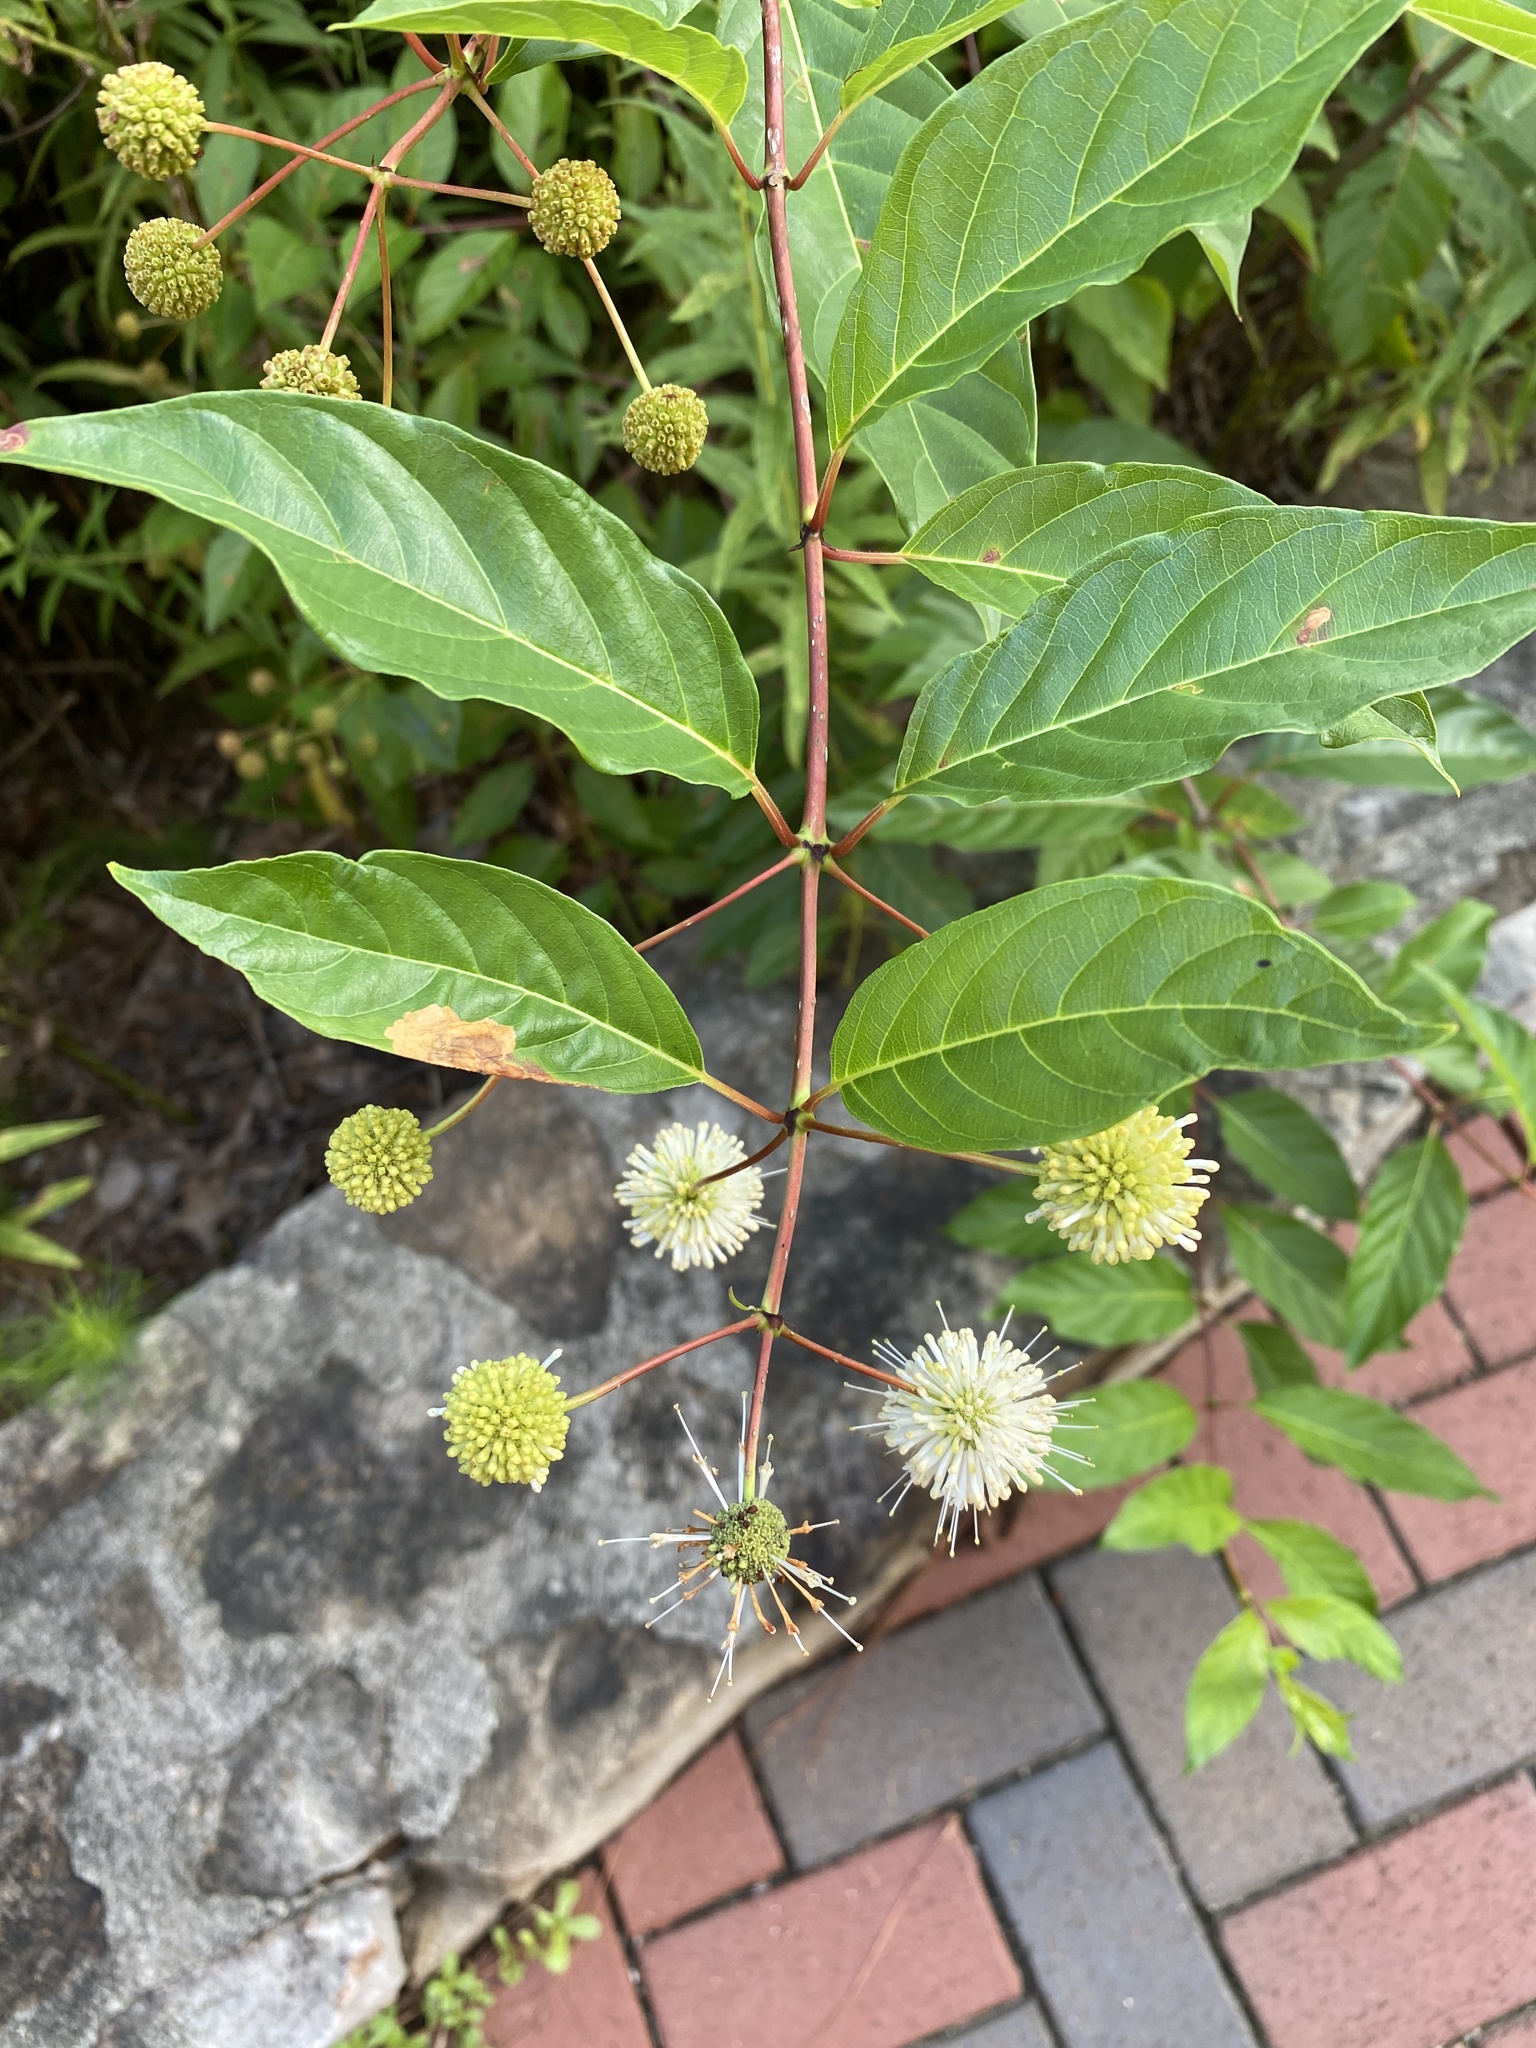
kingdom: Plantae
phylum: Tracheophyta
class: Magnoliopsida
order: Gentianales
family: Rubiaceae
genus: Cephalanthus
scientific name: Cephalanthus occidentalis
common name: Button-willow
